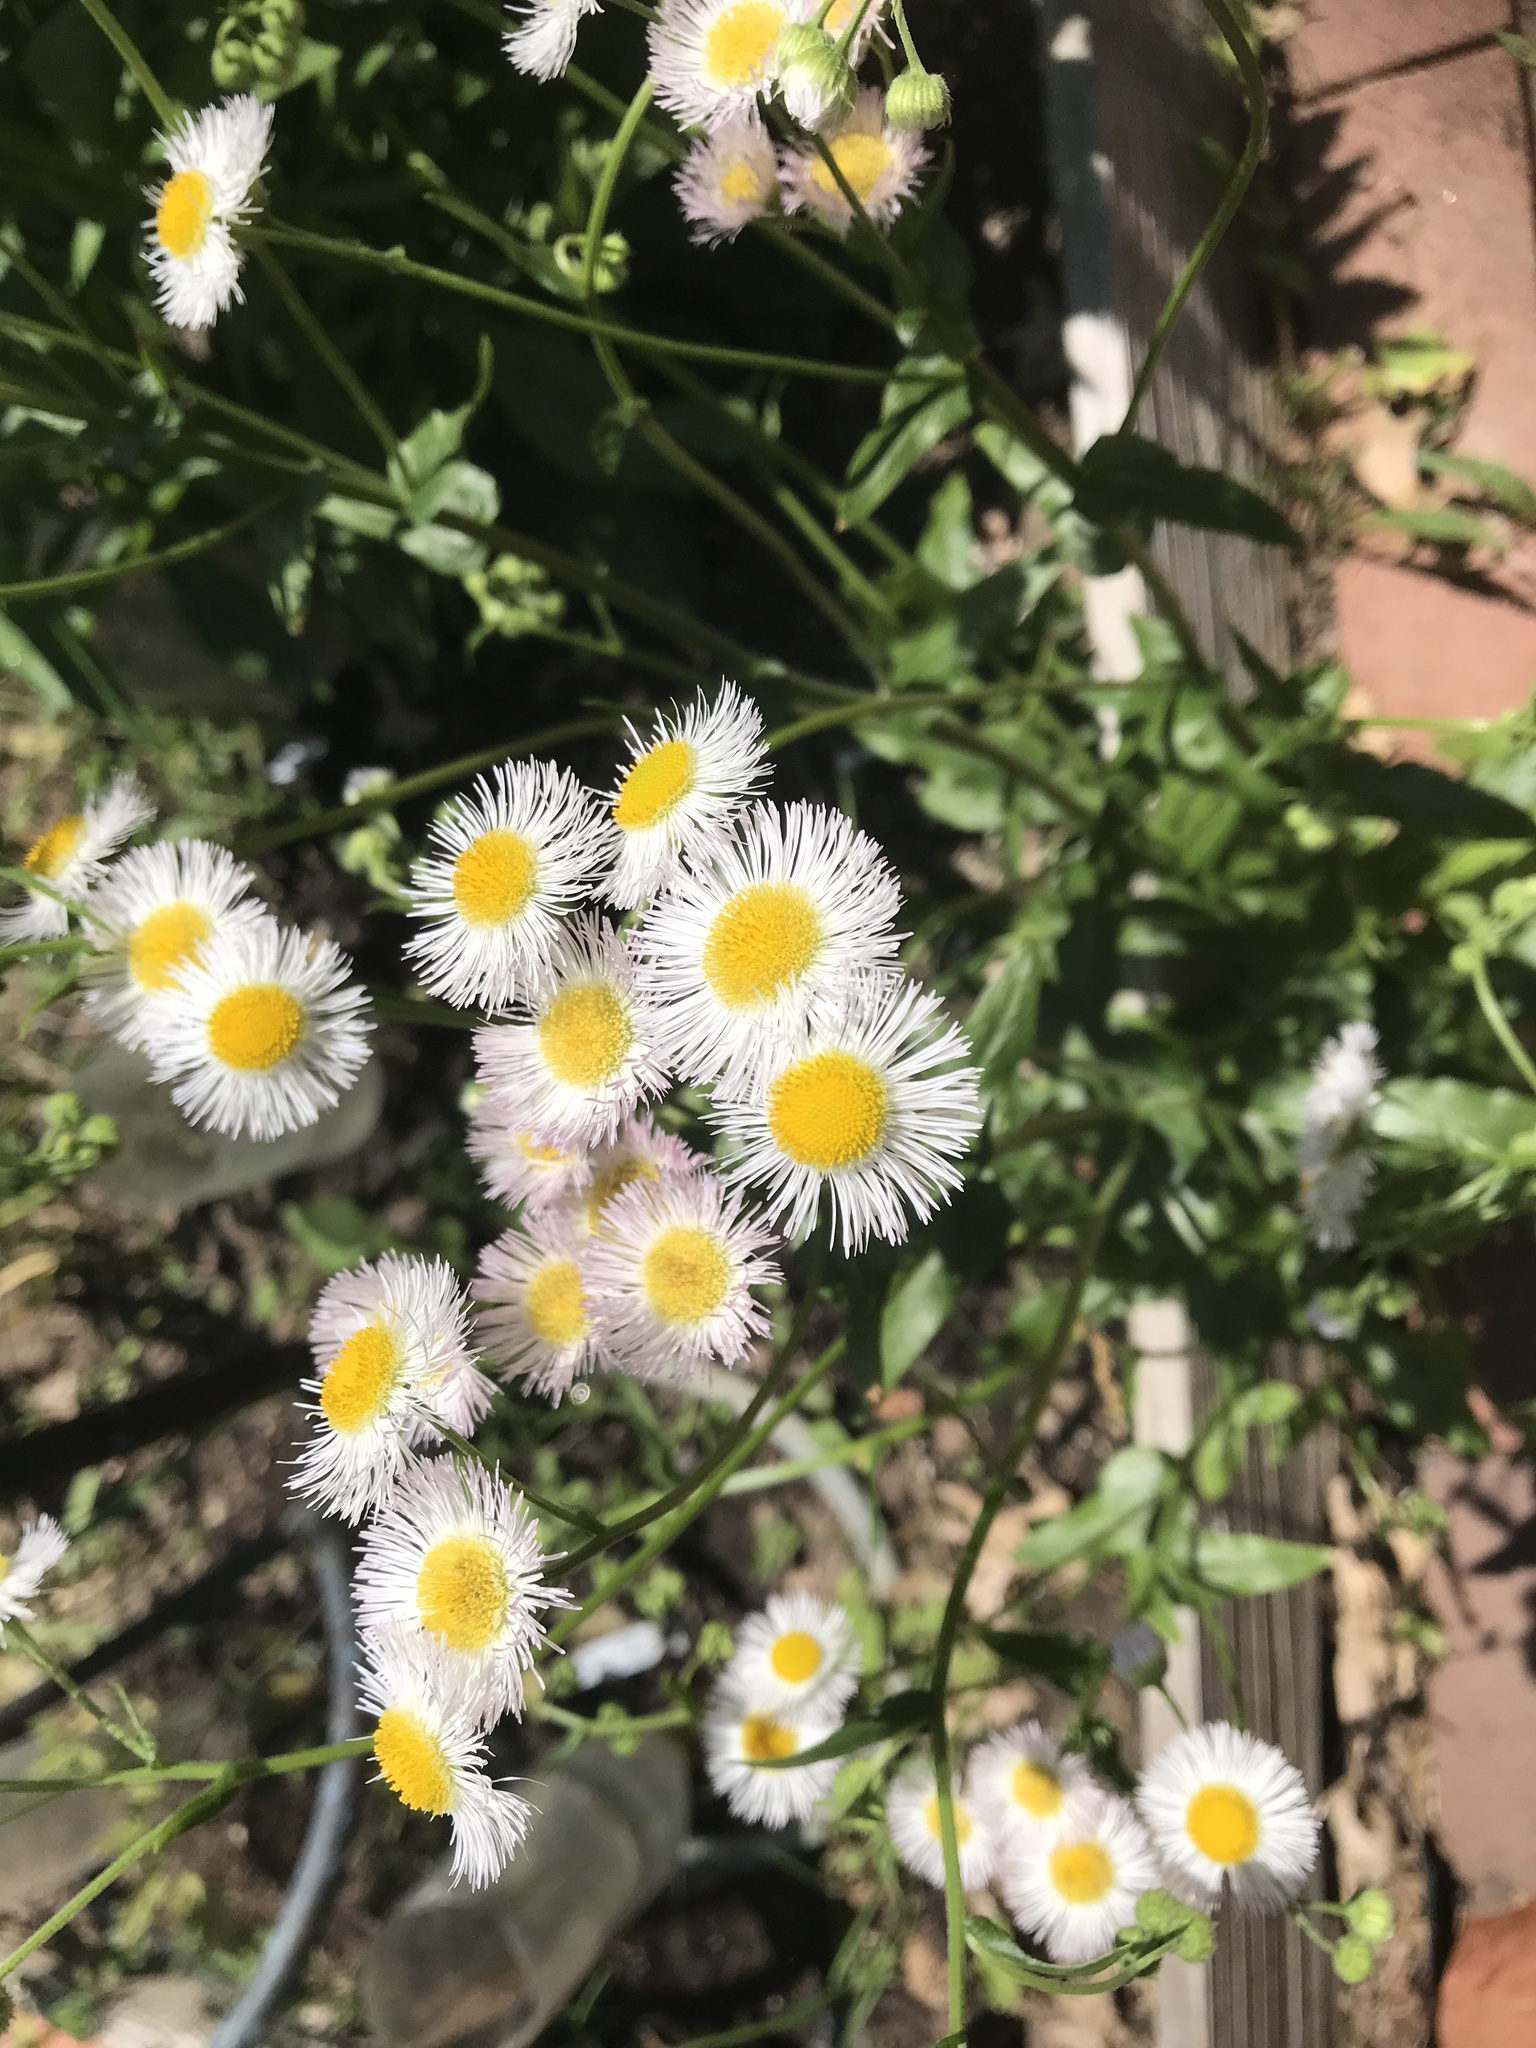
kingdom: Plantae
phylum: Tracheophyta
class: Magnoliopsida
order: Asterales
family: Asteraceae
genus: Erigeron
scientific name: Erigeron philadelphicus
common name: Robin's-plantain
